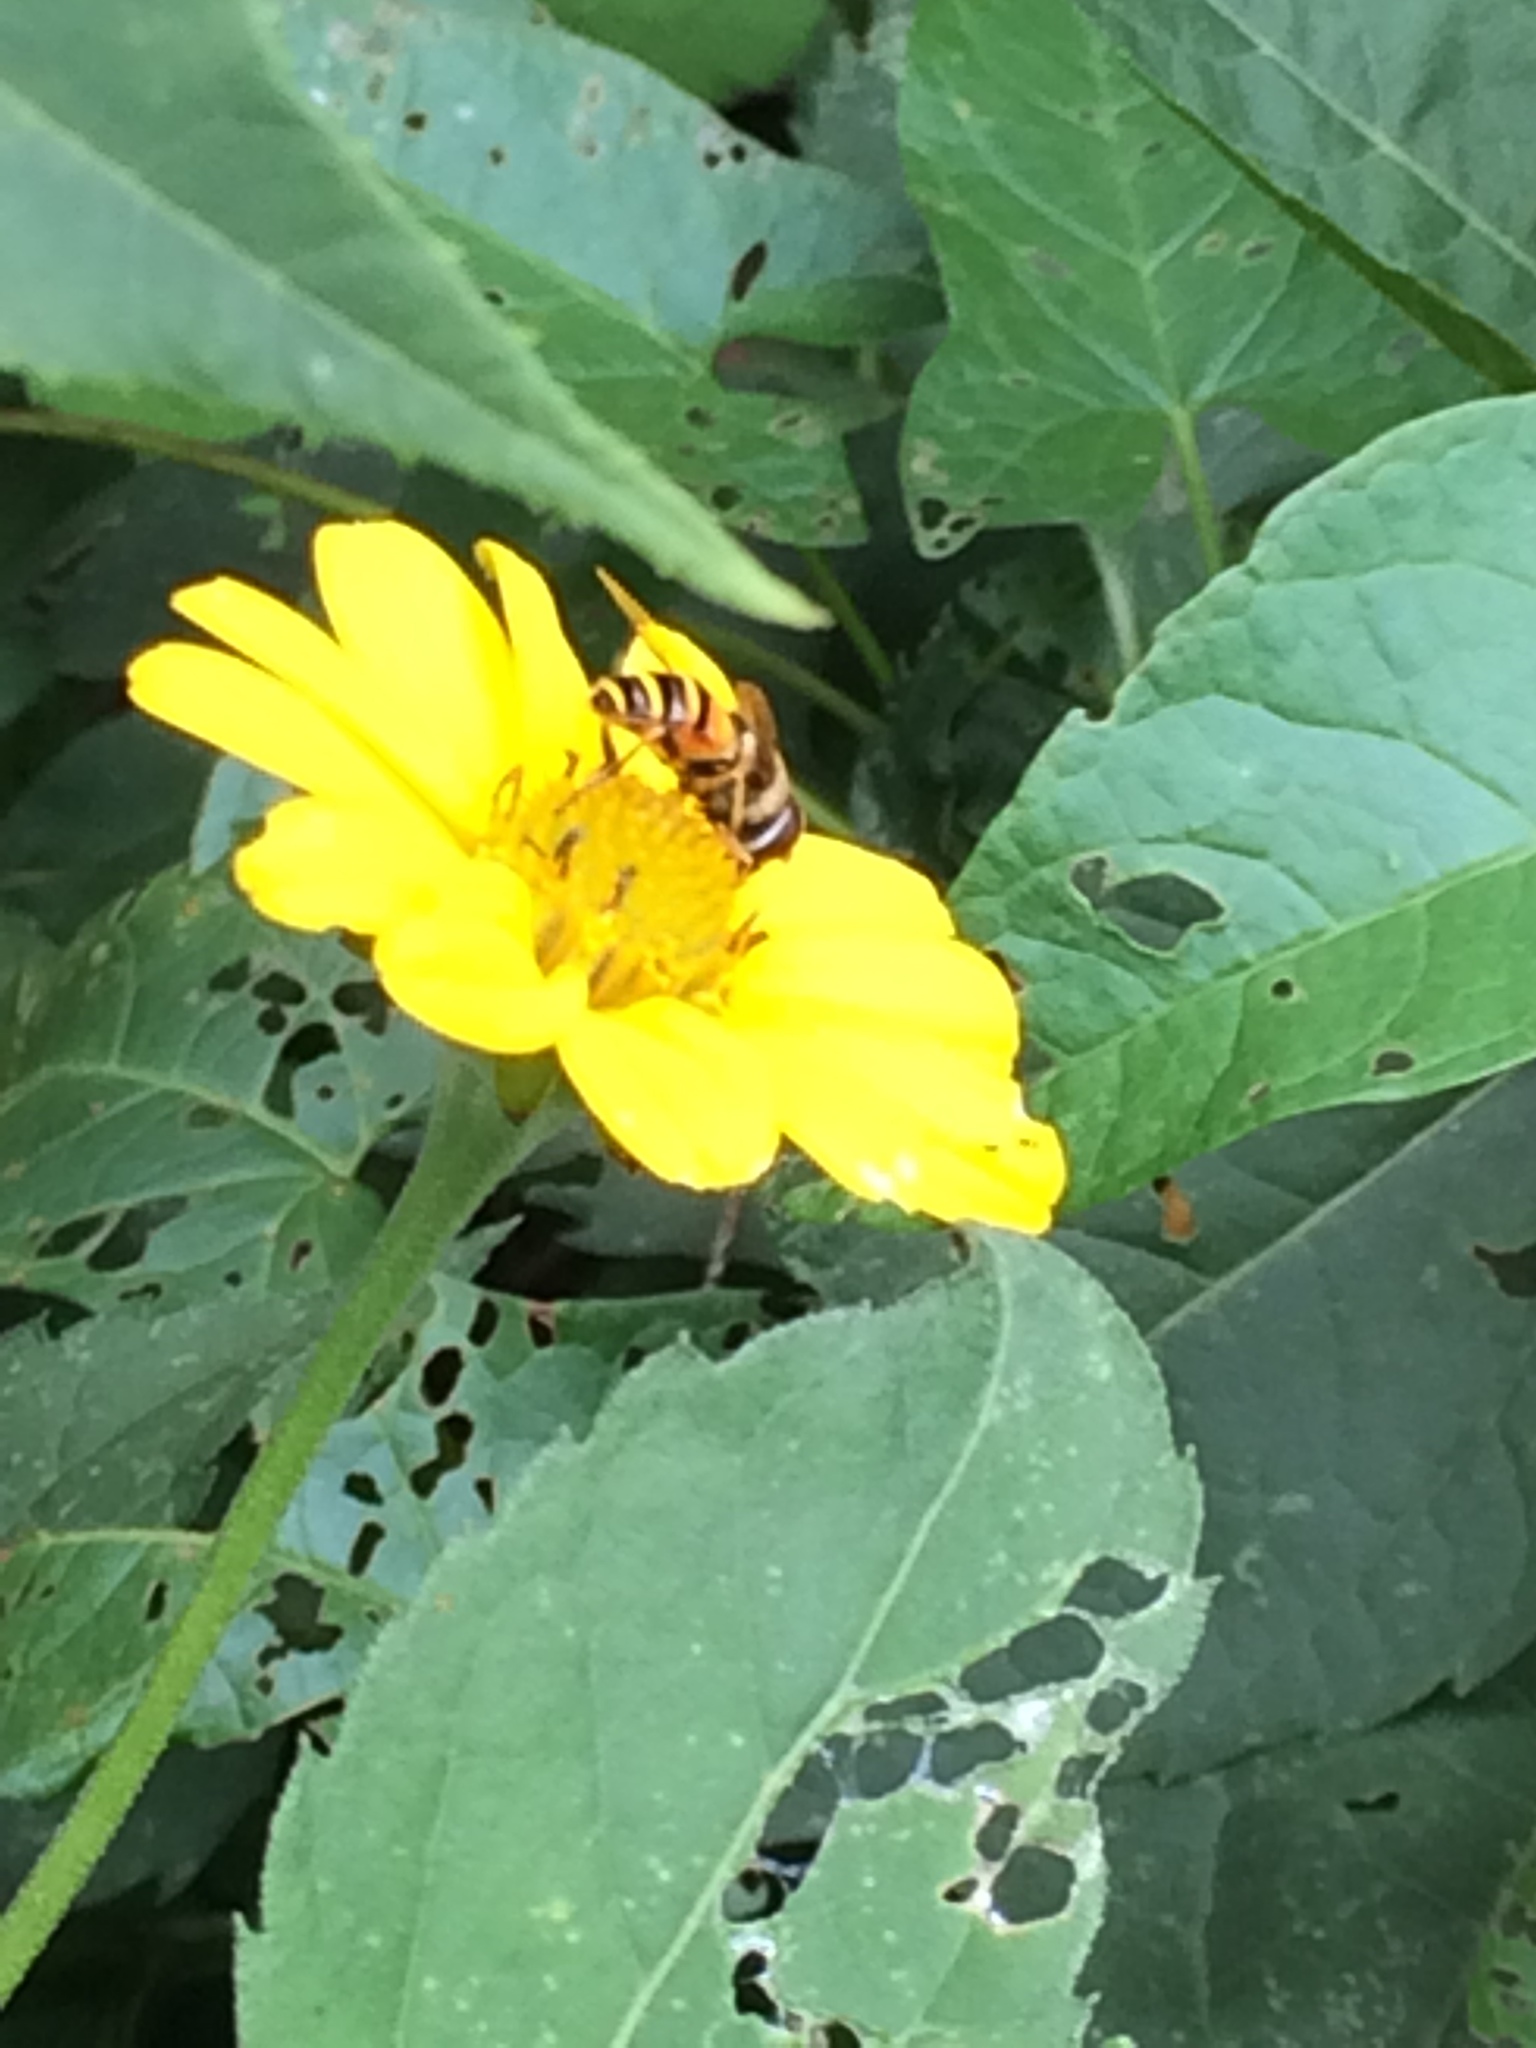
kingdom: Animalia
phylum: Arthropoda
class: Insecta
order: Diptera
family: Syrphidae
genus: Eristalis
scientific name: Eristalis transversa
